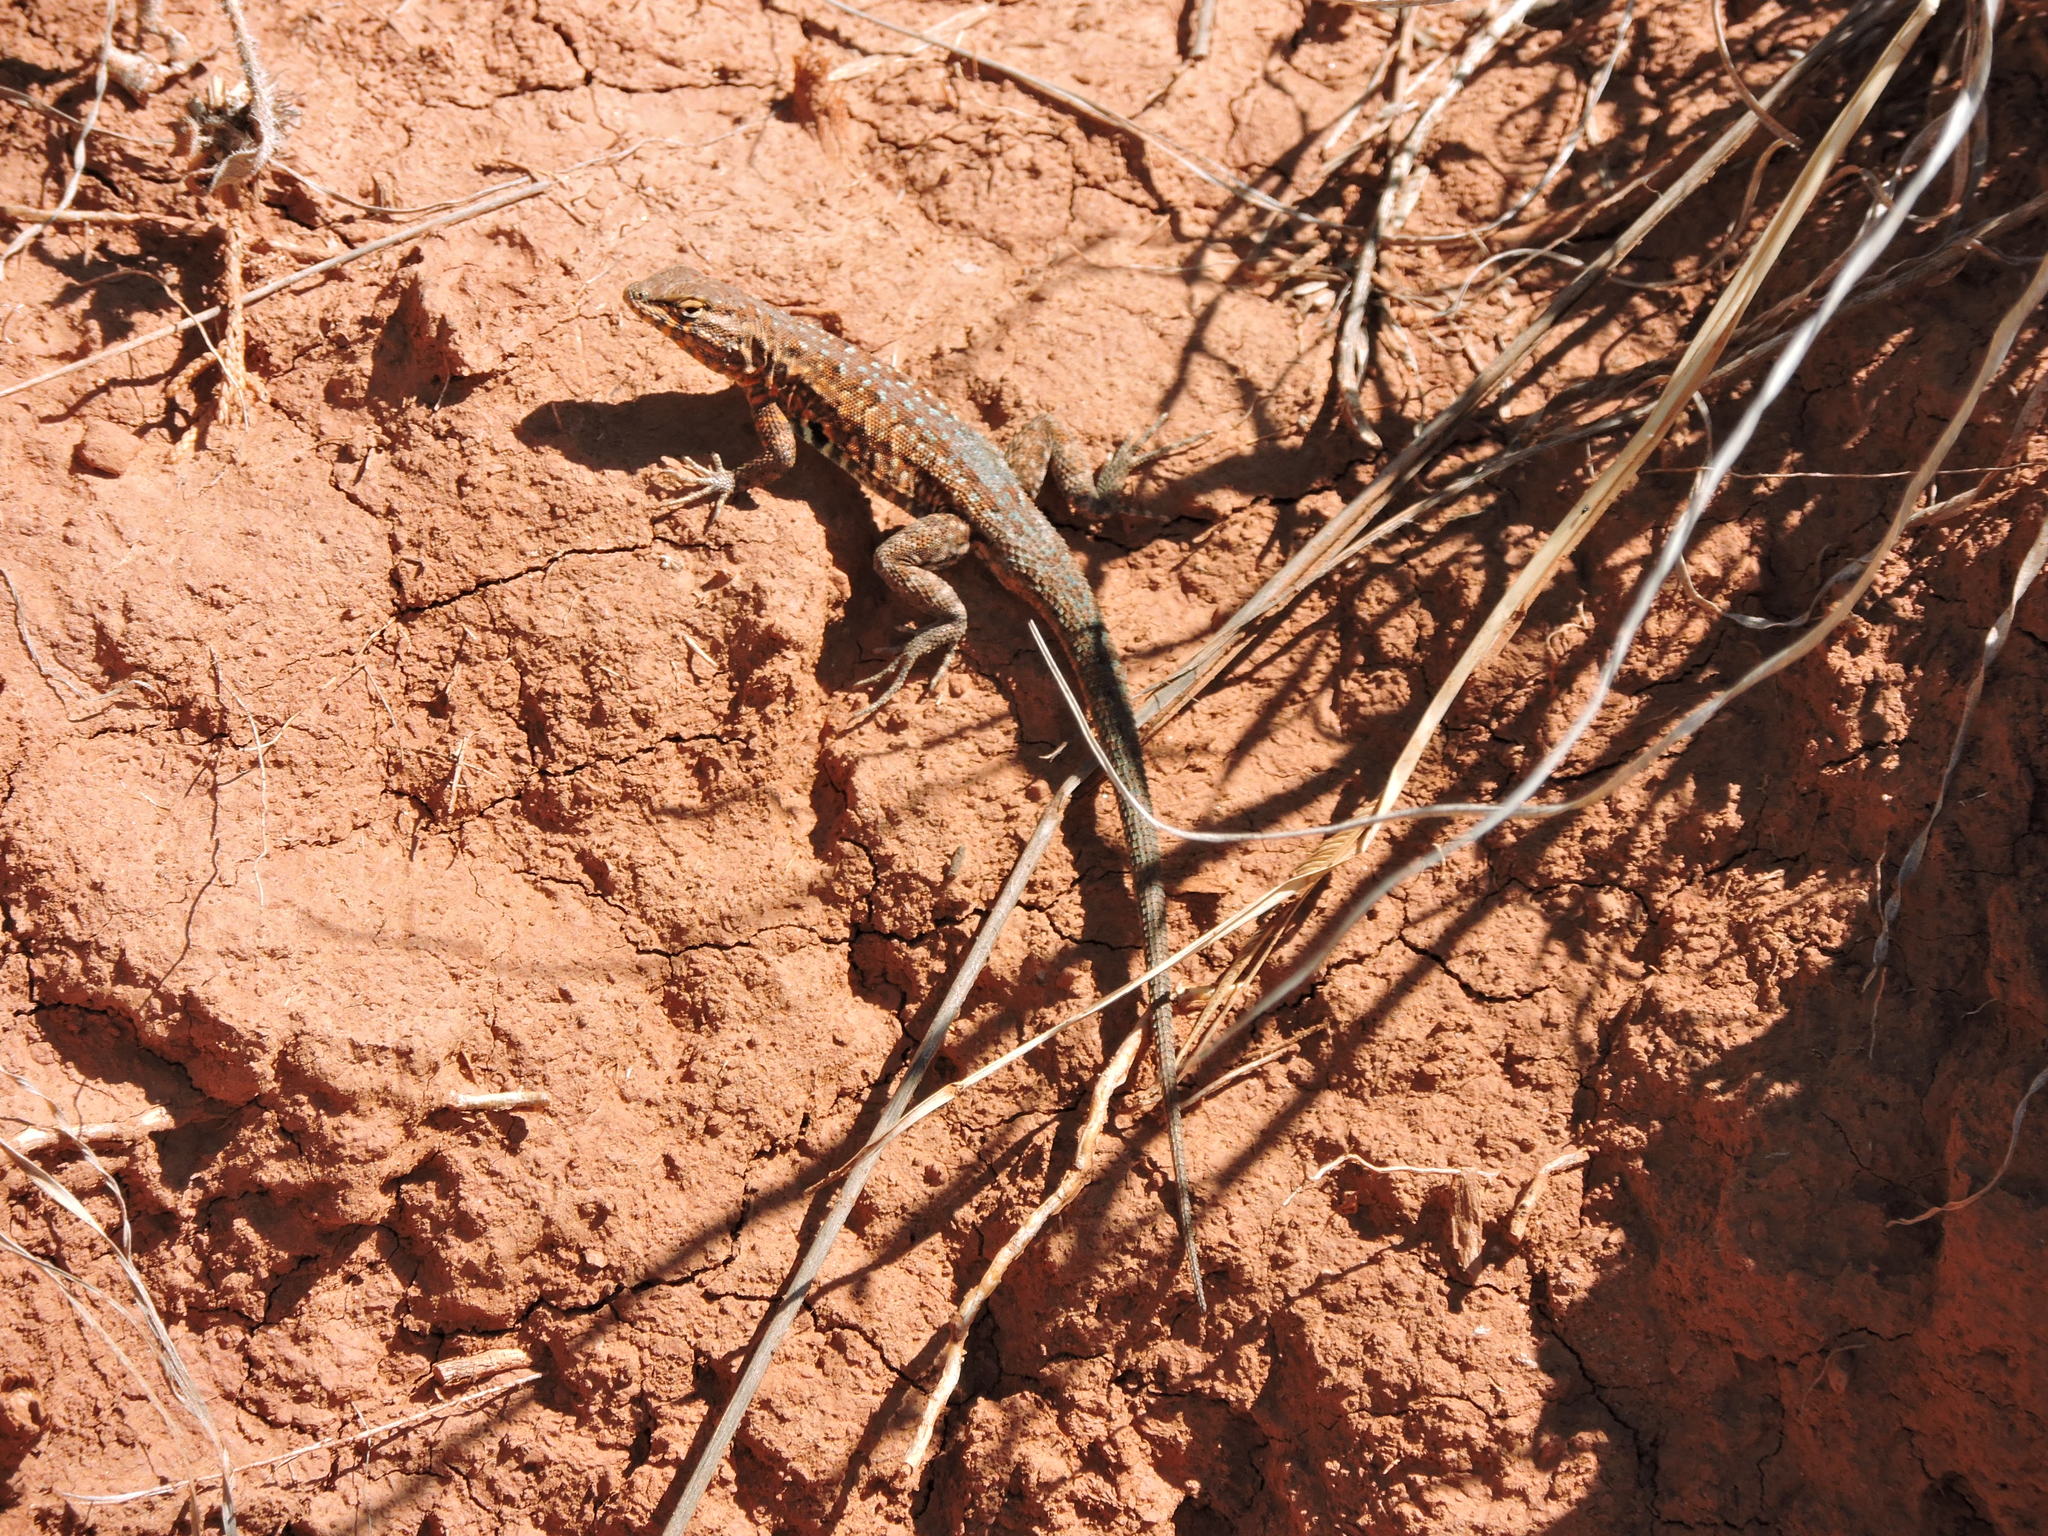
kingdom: Animalia
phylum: Chordata
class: Squamata
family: Phrynosomatidae
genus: Uta
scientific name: Uta stansburiana
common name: Side-blotched lizard
